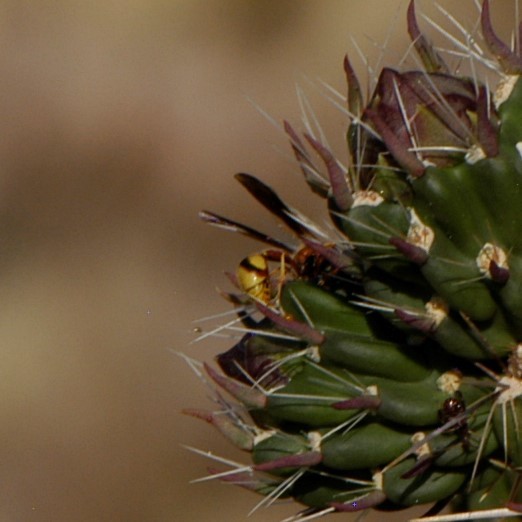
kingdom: Animalia
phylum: Arthropoda
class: Insecta
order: Hymenoptera
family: Vespidae
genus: Eumenes
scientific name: Eumenes bollii
